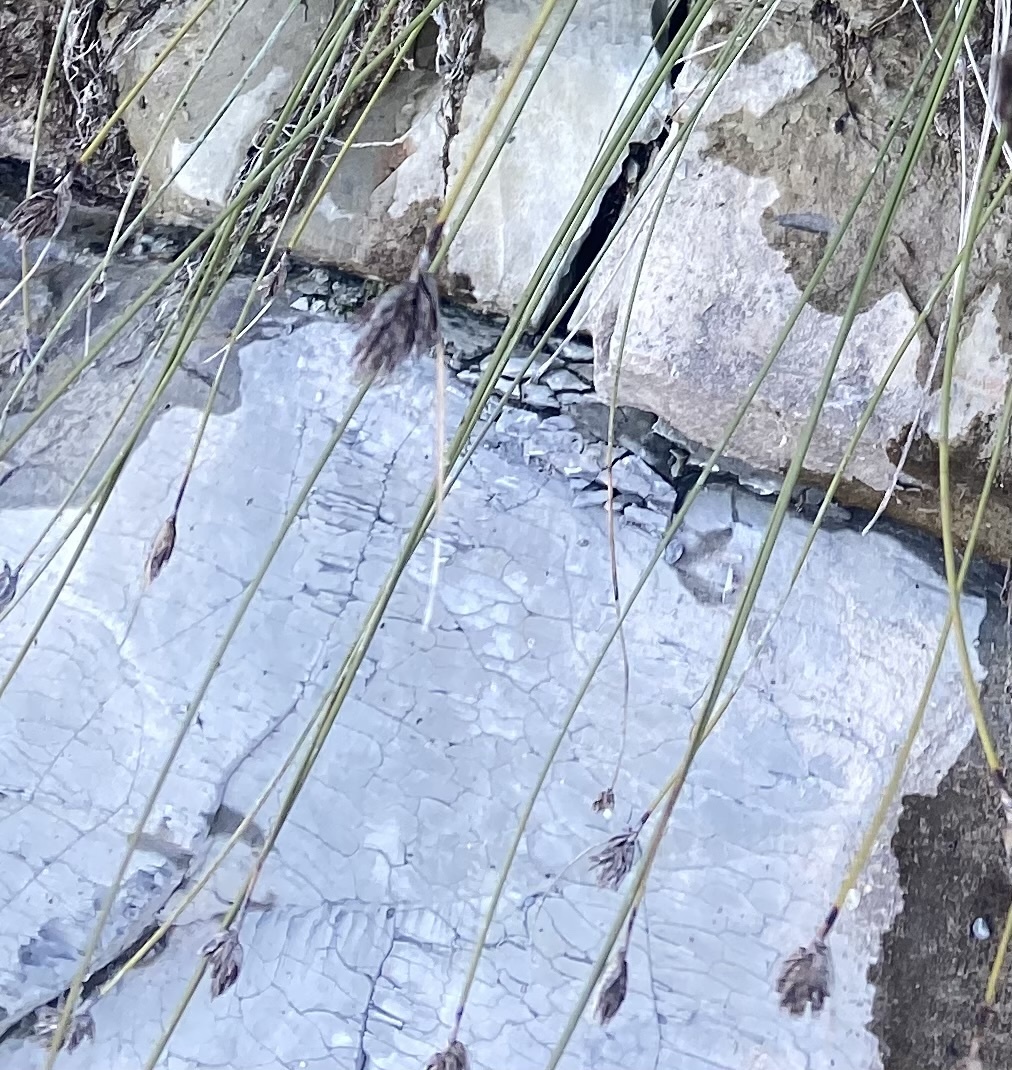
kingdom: Plantae
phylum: Tracheophyta
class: Liliopsida
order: Poales
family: Cyperaceae
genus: Schoenus
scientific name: Schoenus nigricans
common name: Black bog-rush
